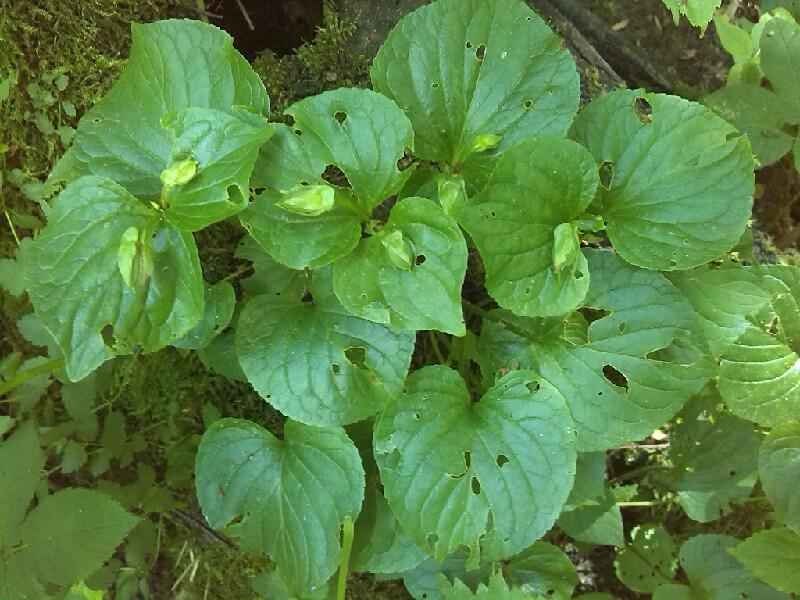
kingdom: Plantae
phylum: Tracheophyta
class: Magnoliopsida
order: Malpighiales
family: Violaceae
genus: Viola
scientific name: Viola mirabilis
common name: Wonder violet
